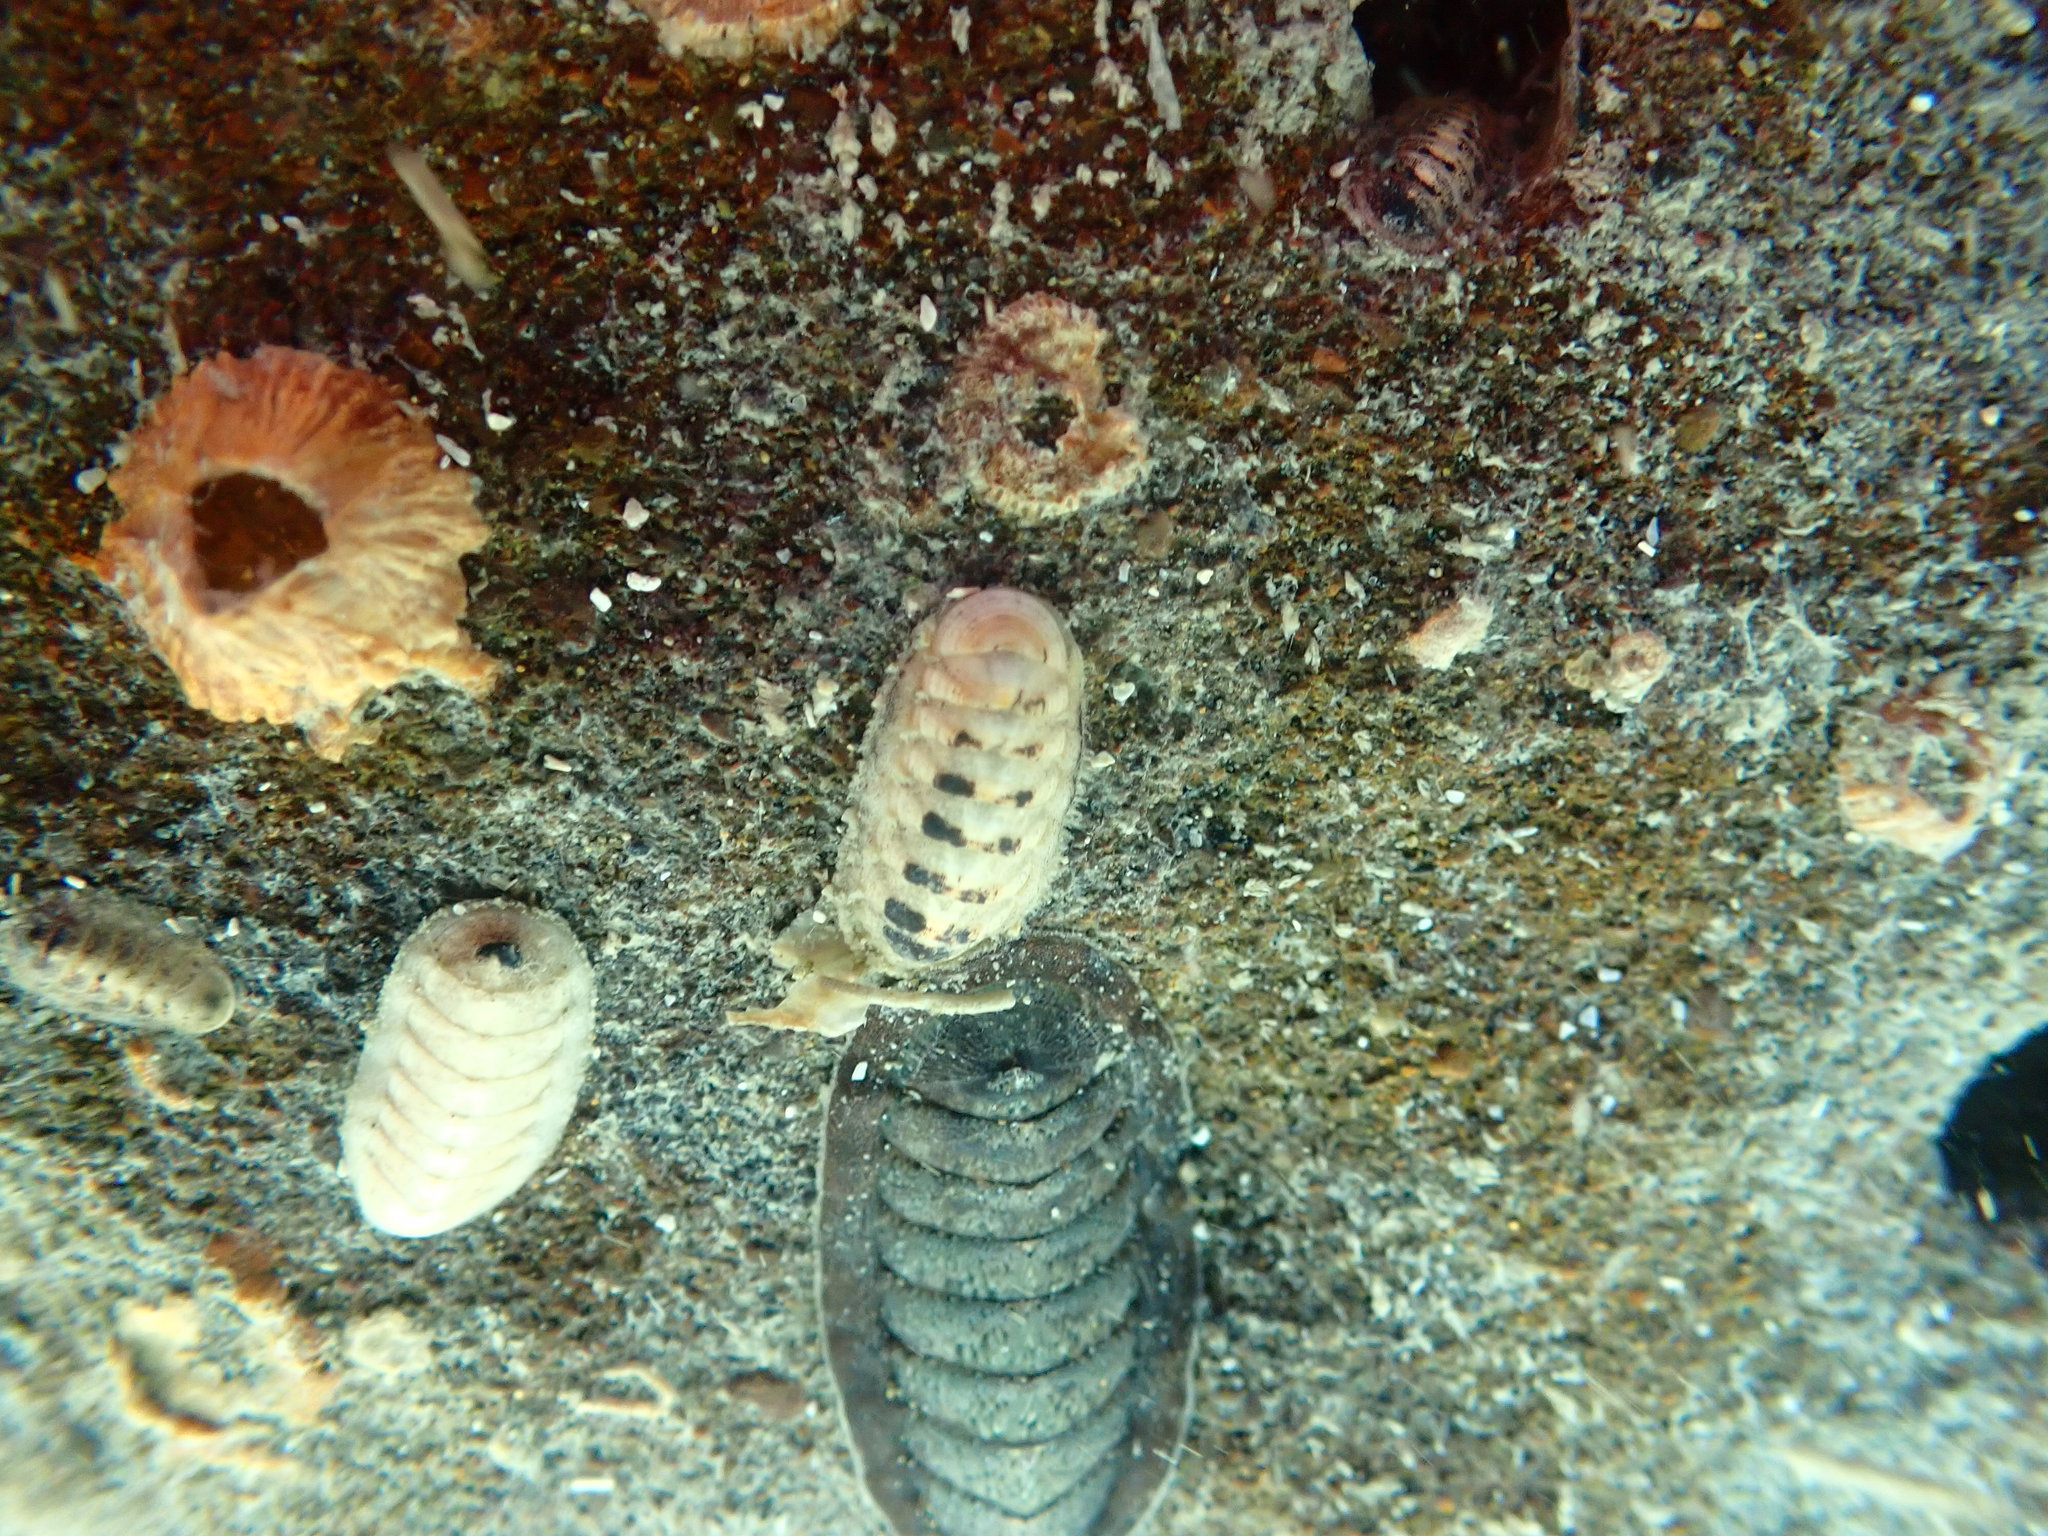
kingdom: Animalia
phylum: Mollusca
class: Polyplacophora
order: Lepidopleurida
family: Leptochitonidae
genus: Leptochiton
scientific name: Leptochiton inquinatus
